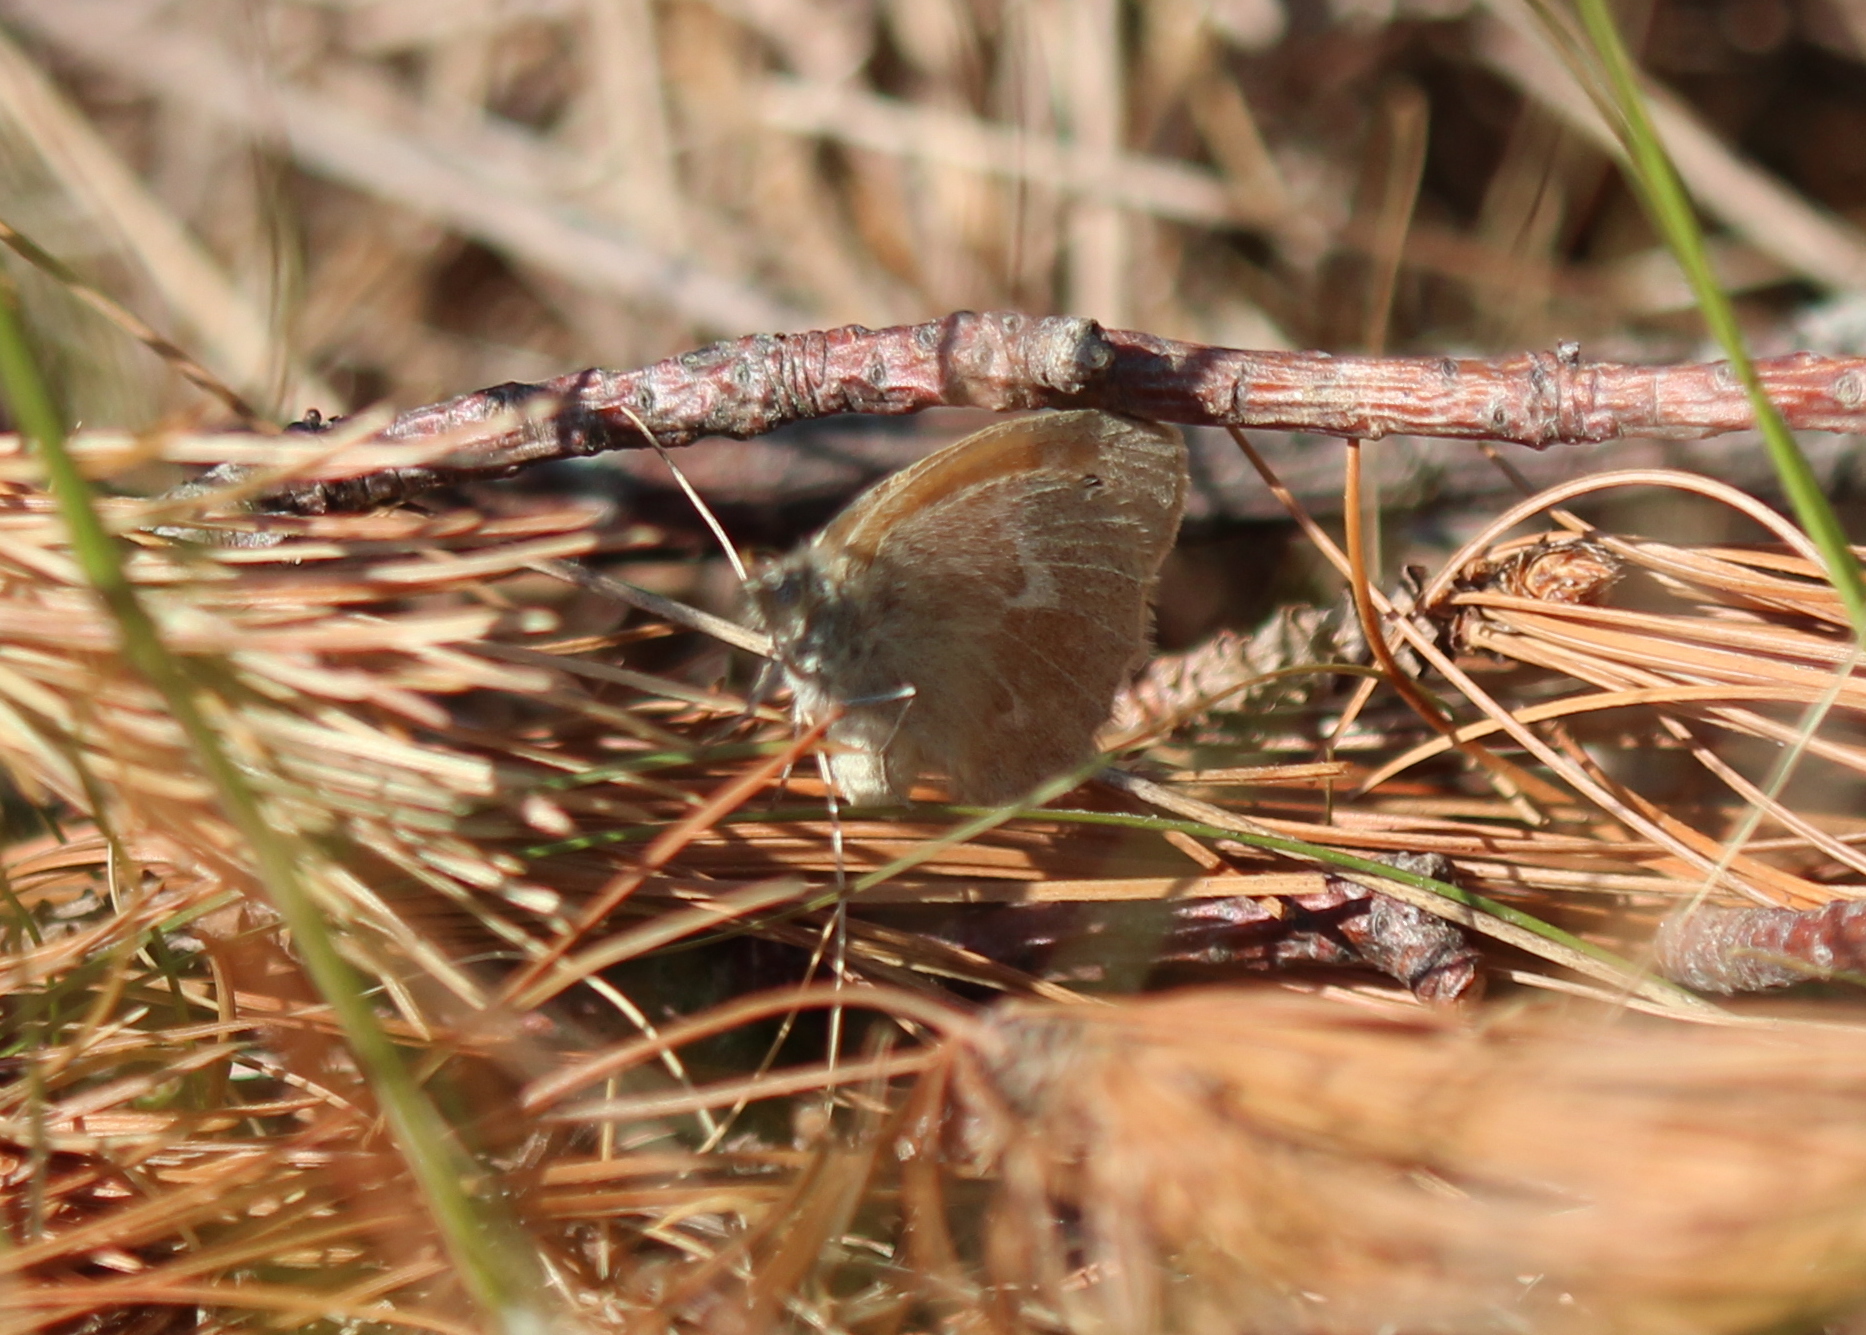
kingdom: Animalia
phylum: Arthropoda
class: Insecta
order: Lepidoptera
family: Nymphalidae
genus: Coenonympha
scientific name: Coenonympha california
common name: Common ringlet
